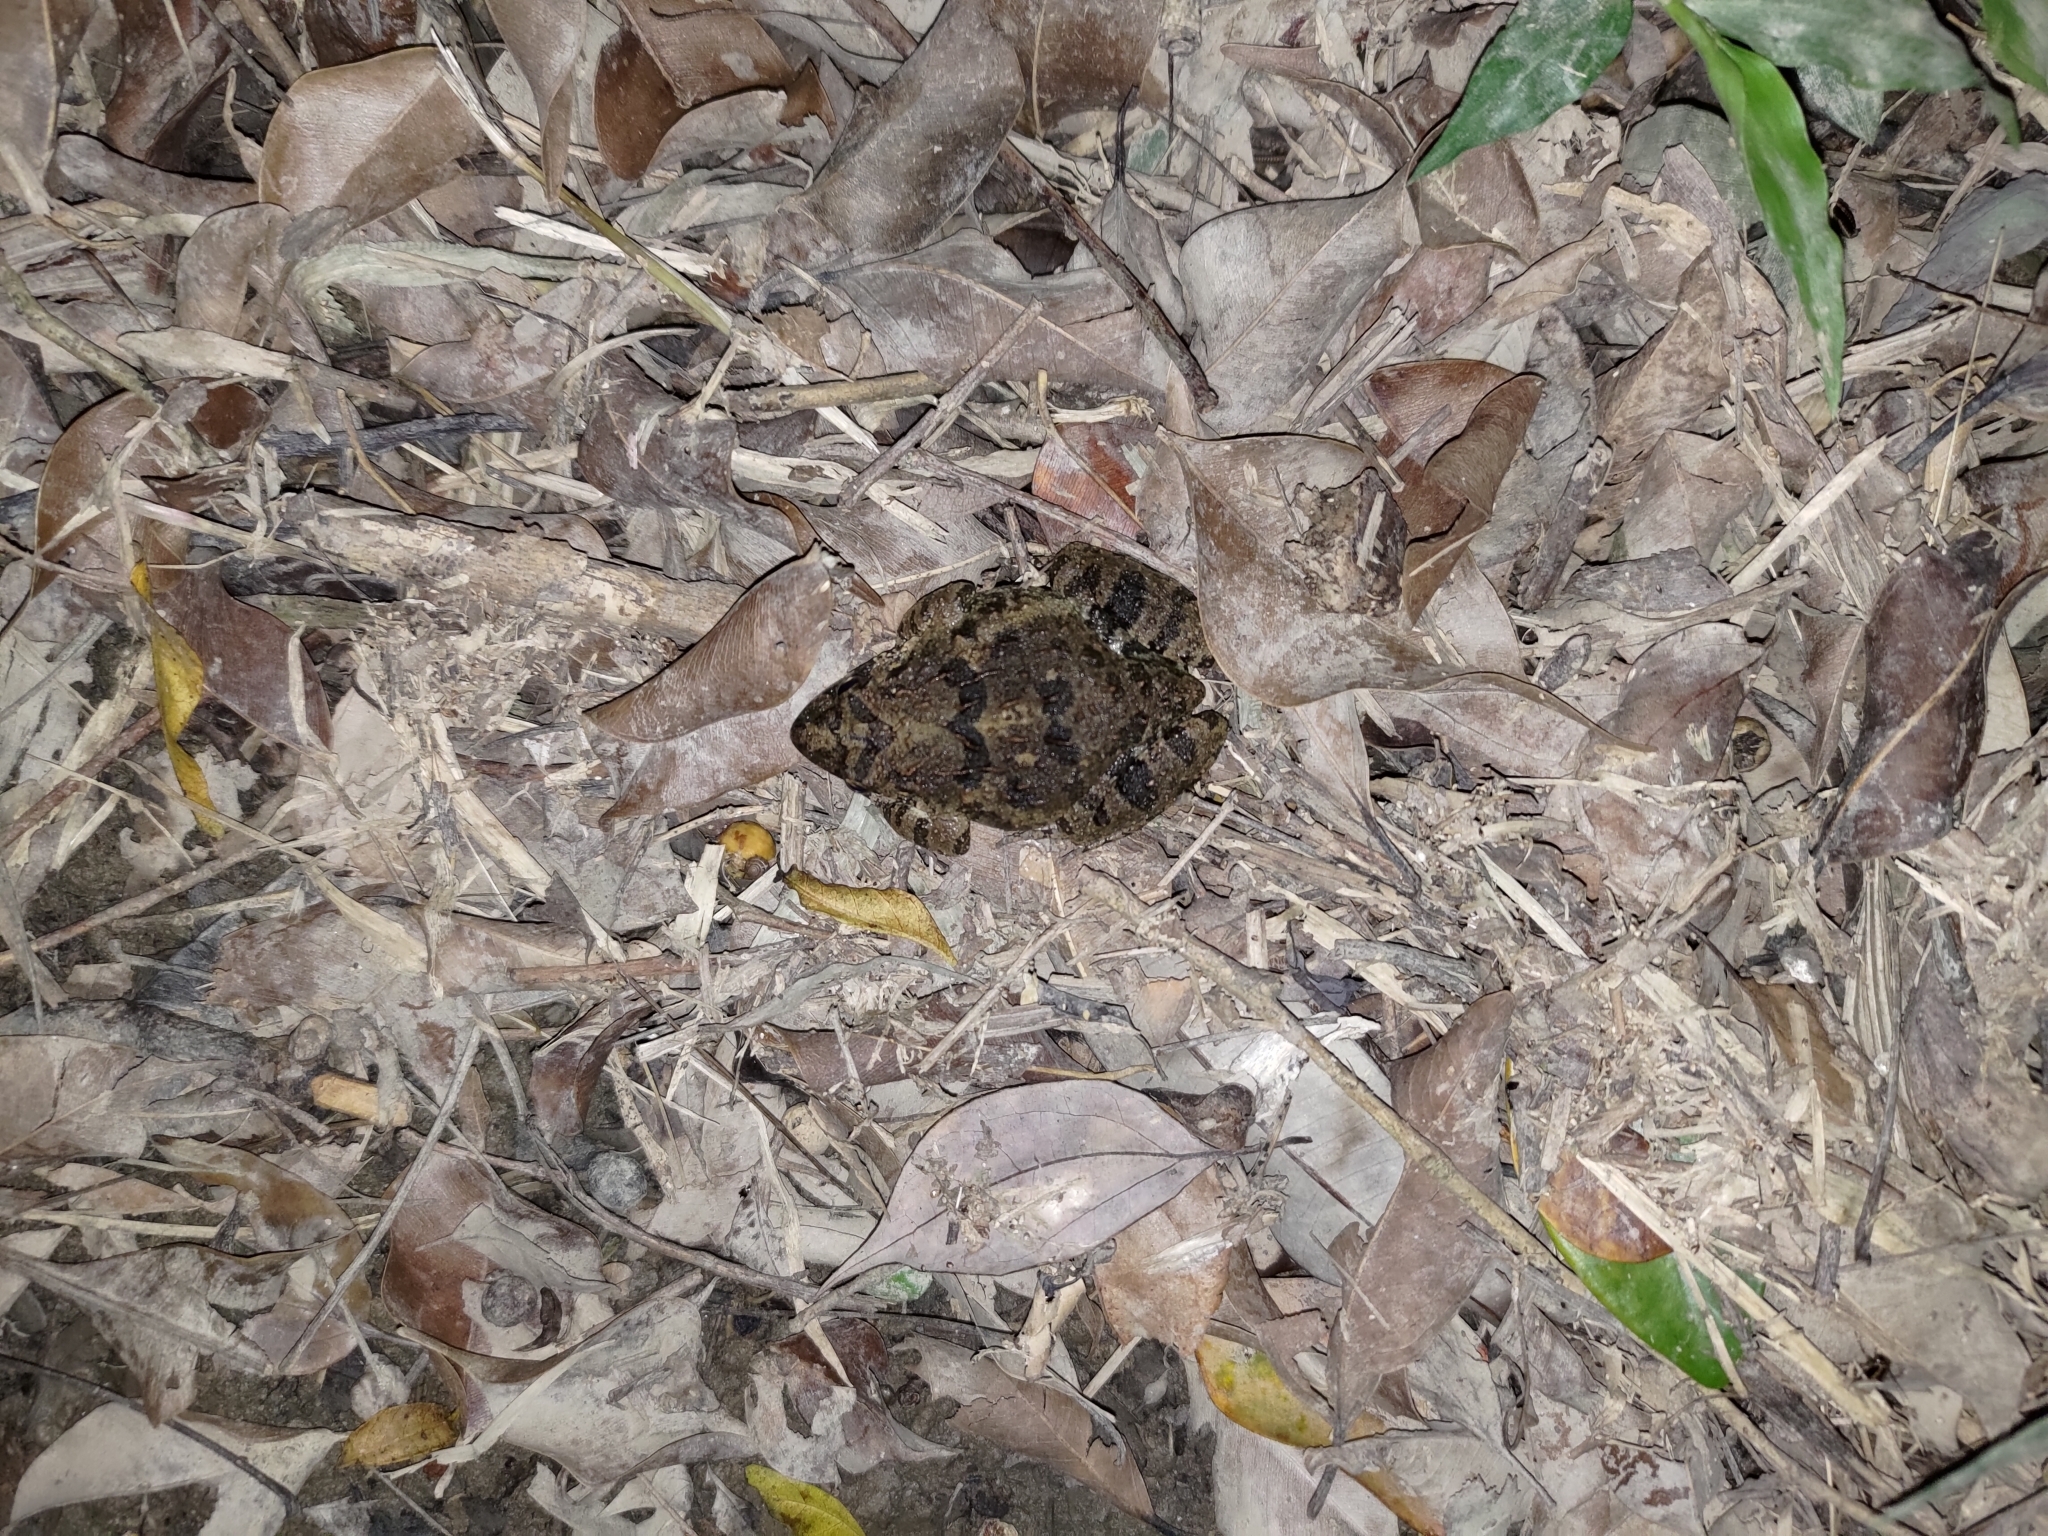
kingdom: Animalia
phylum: Chordata
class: Amphibia
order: Anura
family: Dicroglossidae
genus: Fejervarya
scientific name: Fejervarya limnocharis
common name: Asian grass frog/common pond frog/field frog/grass frog/indian rice frog
